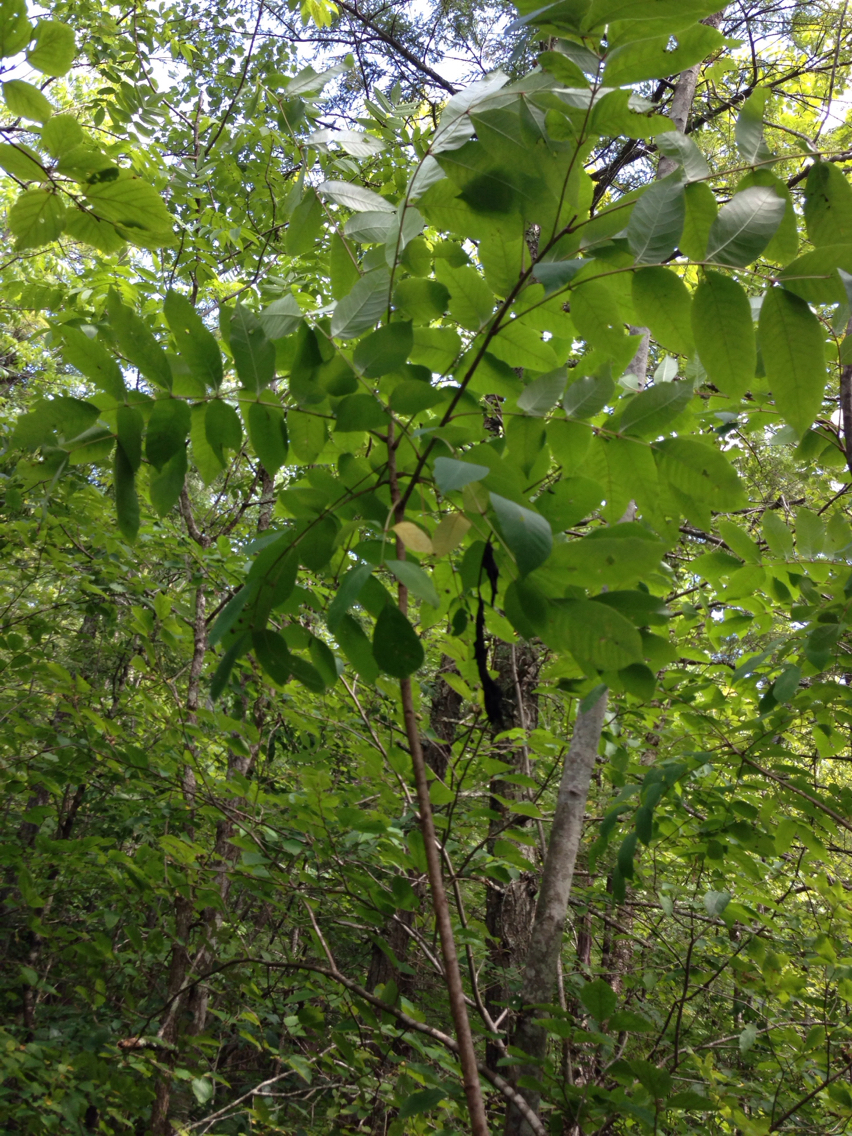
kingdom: Plantae
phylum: Tracheophyta
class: Magnoliopsida
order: Sapindales
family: Anacardiaceae
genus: Toxicodendron
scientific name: Toxicodendron vernix
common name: Poison sumac
